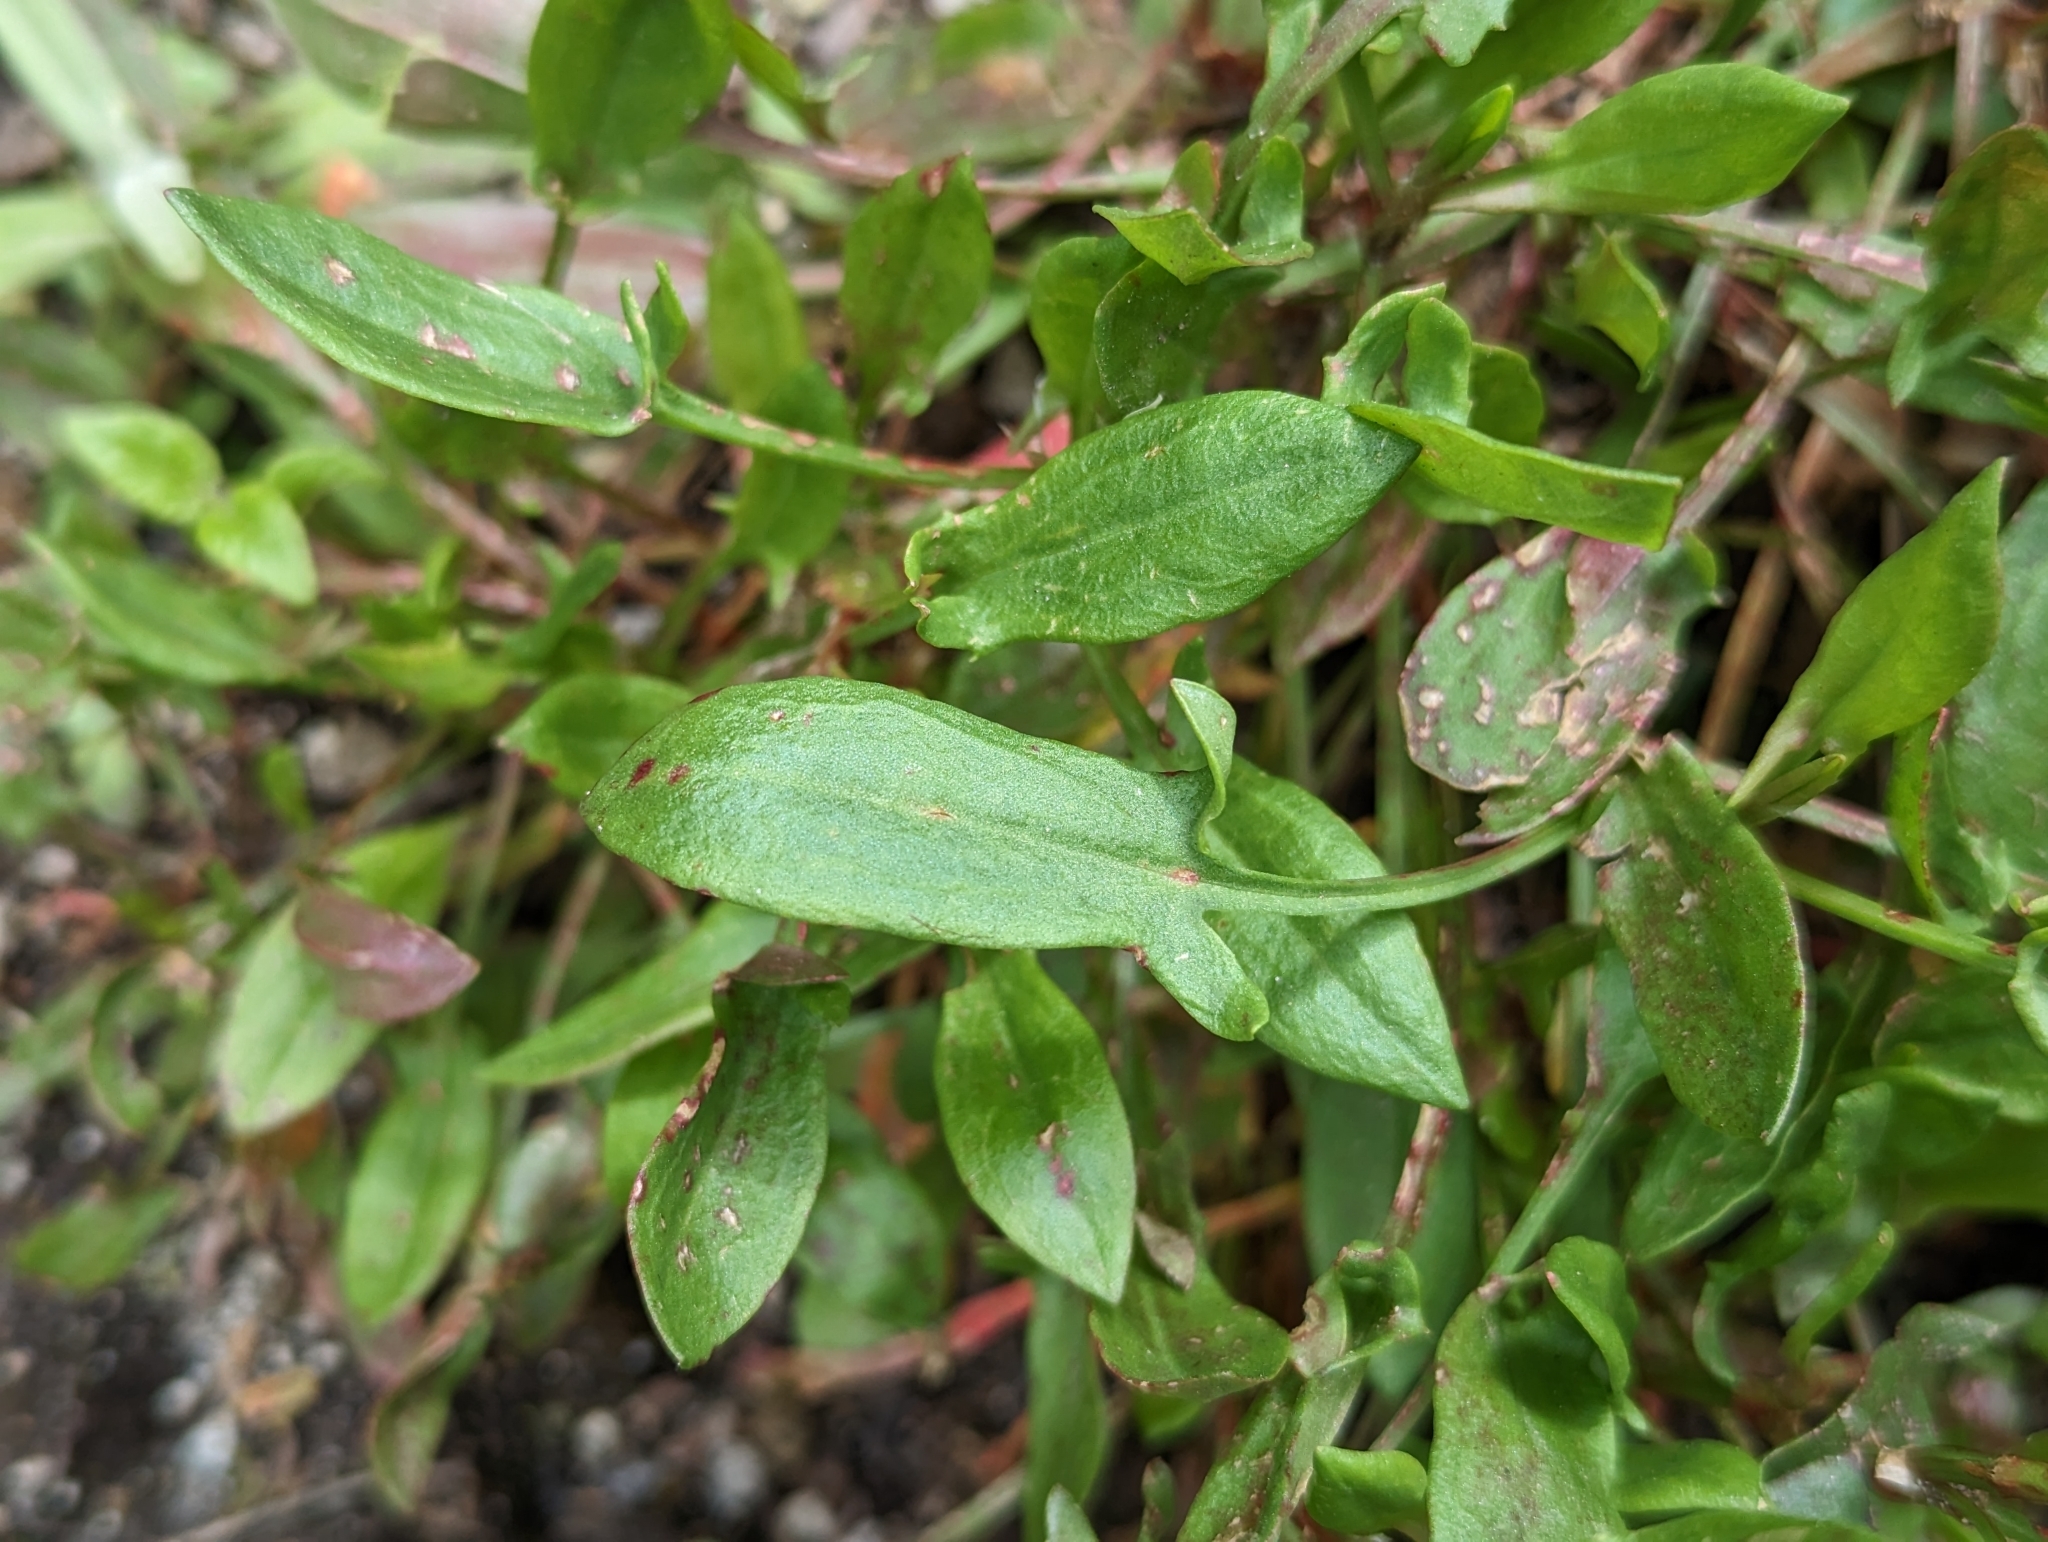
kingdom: Plantae
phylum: Tracheophyta
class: Magnoliopsida
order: Caryophyllales
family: Polygonaceae
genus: Rumex
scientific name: Rumex acetosella
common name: Common sheep sorrel
